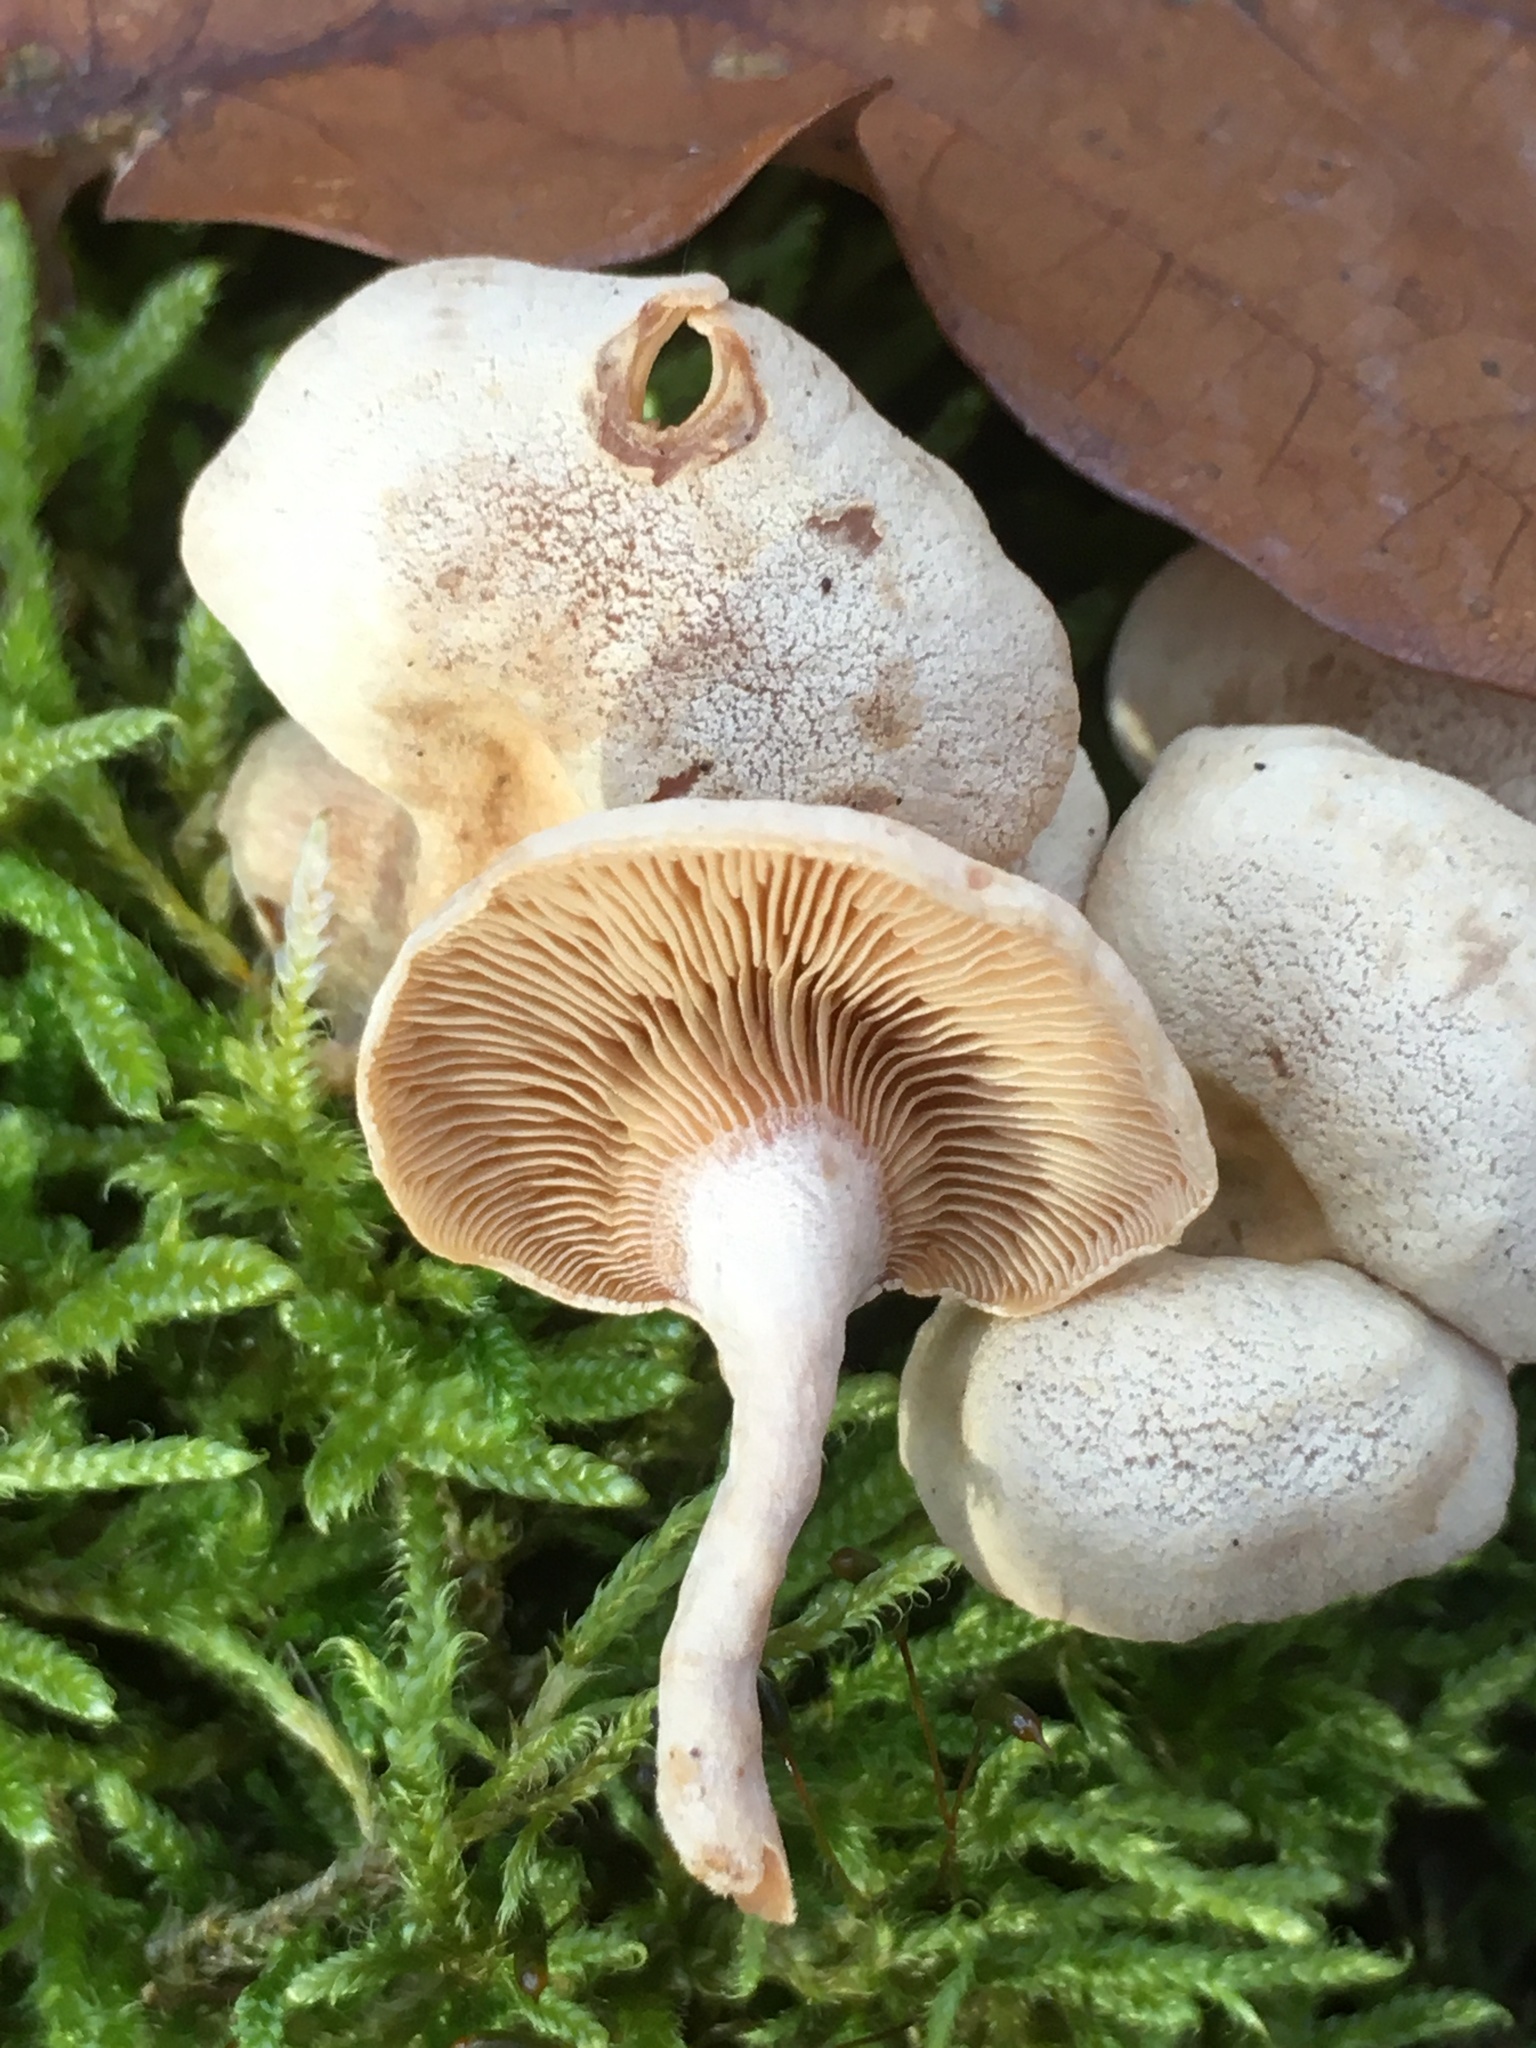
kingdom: Fungi
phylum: Basidiomycota
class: Agaricomycetes
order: Agaricales
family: Mycenaceae
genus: Panellus
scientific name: Panellus stipticus
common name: Bitter oysterling
